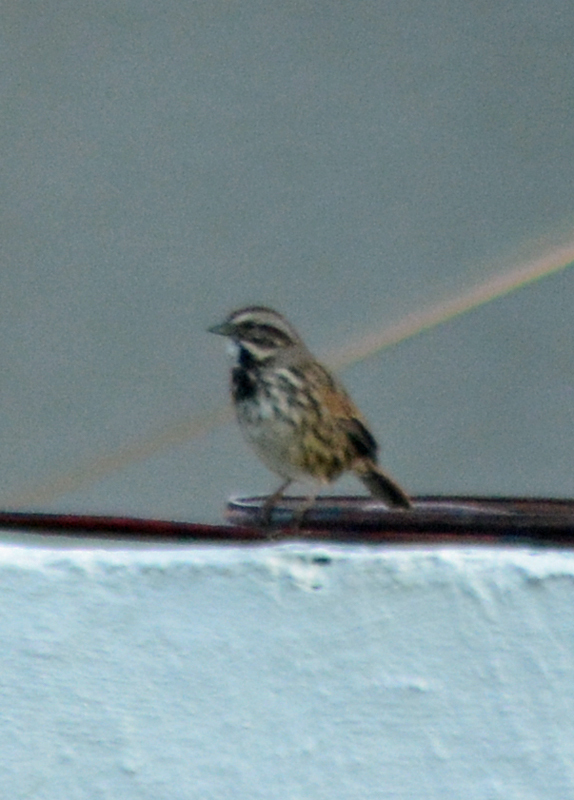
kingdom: Animalia
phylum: Chordata
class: Aves
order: Passeriformes
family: Passerellidae
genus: Melospiza
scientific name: Melospiza melodia
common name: Song sparrow
